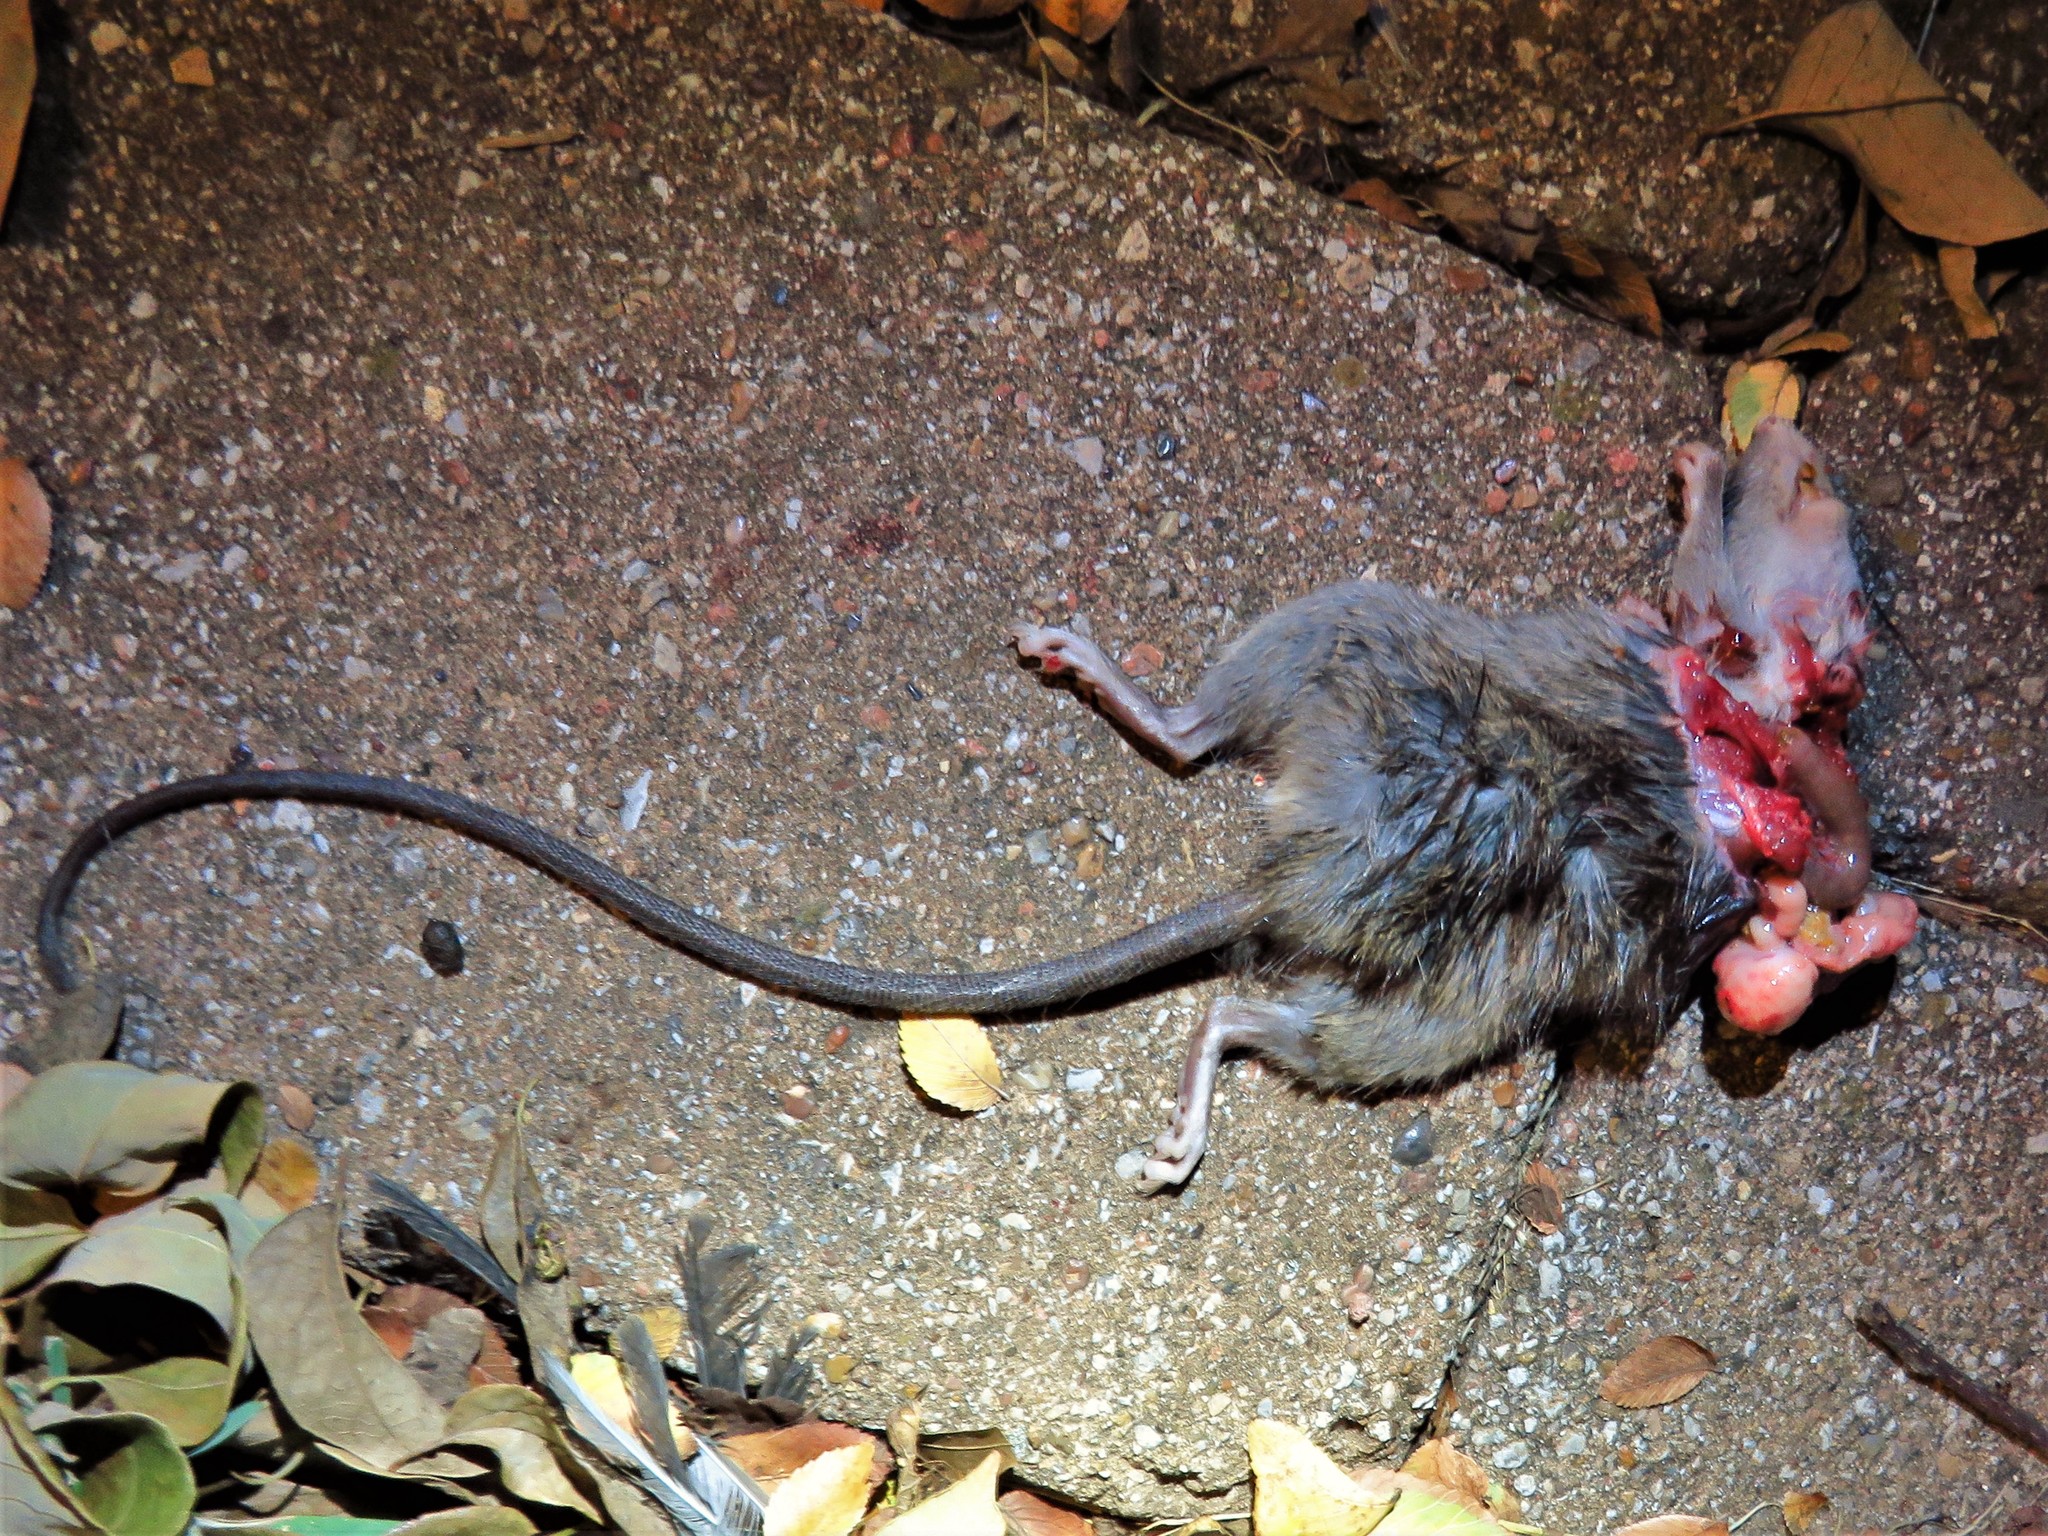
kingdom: Animalia
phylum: Chordata
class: Mammalia
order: Rodentia
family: Muridae
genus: Rattus
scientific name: Rattus rattus
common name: Black rat
